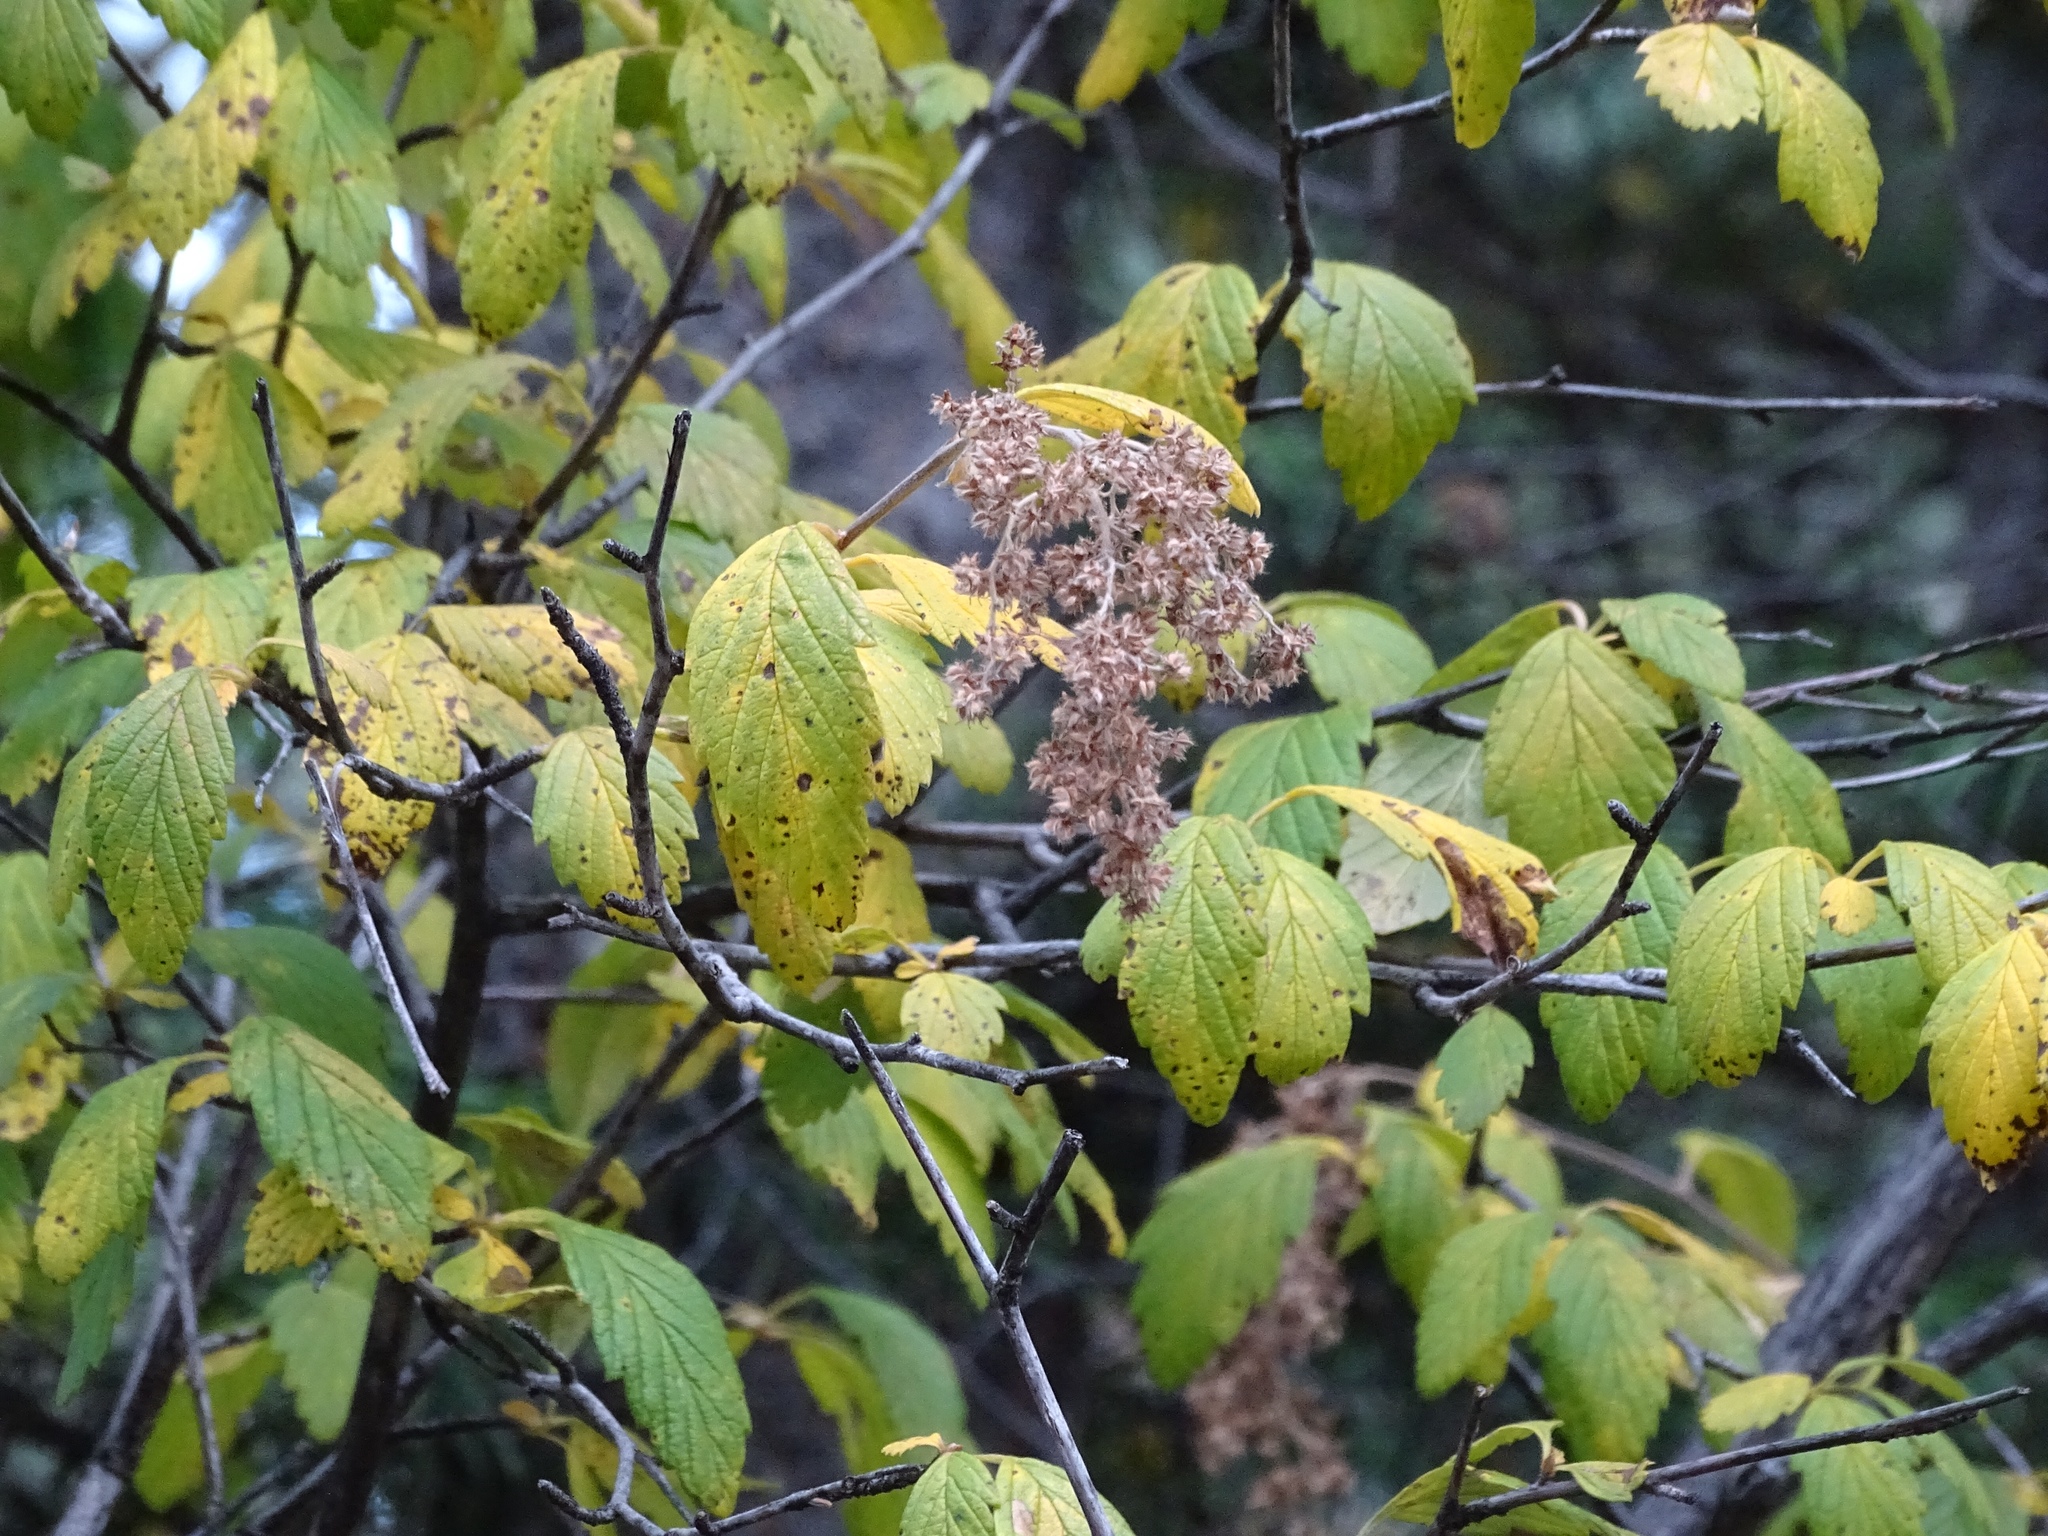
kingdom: Plantae
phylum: Tracheophyta
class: Magnoliopsida
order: Rosales
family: Rosaceae
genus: Holodiscus
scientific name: Holodiscus discolor
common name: Oceanspray
